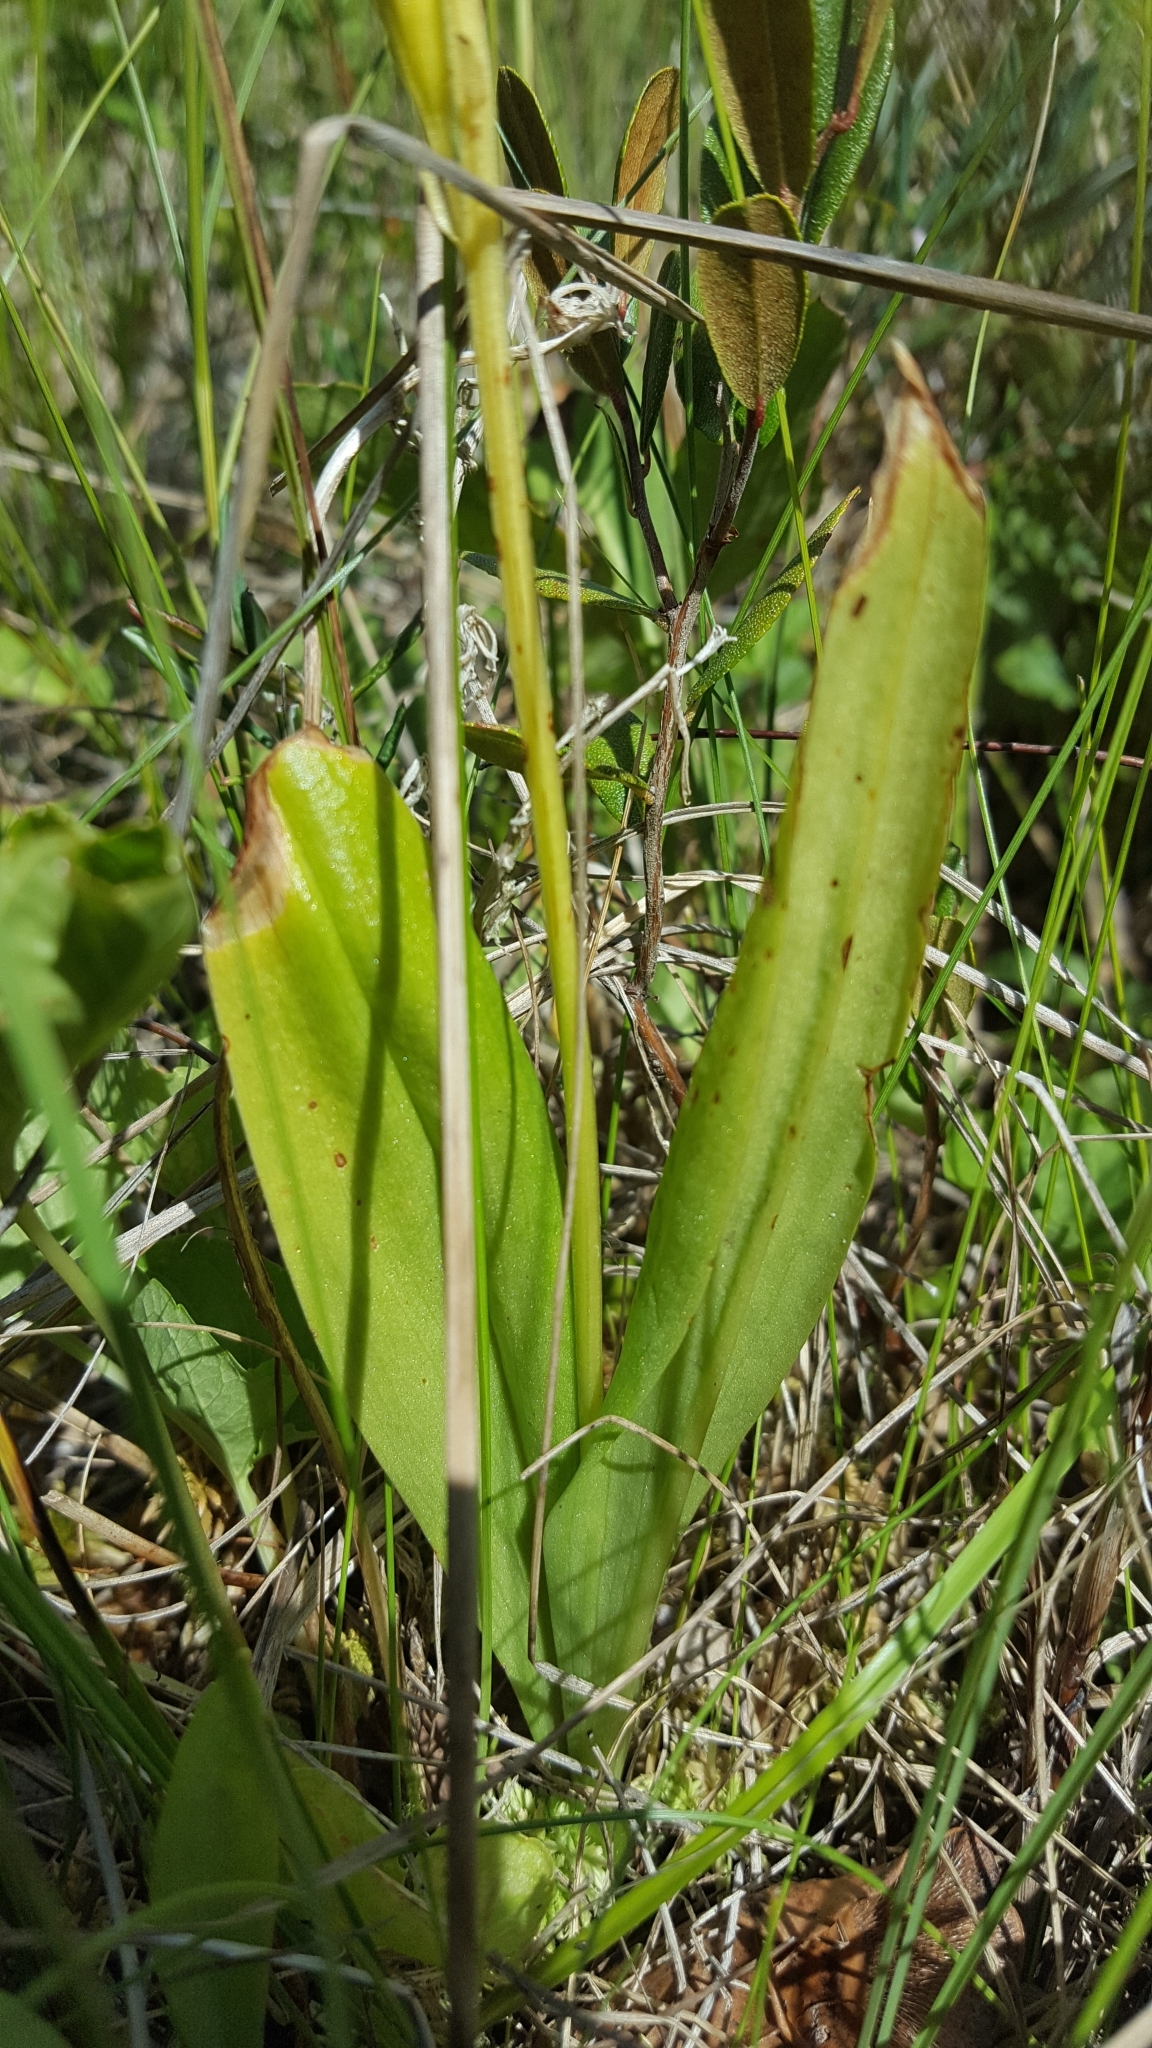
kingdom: Animalia
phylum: Arthropoda
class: Insecta
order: Coleoptera
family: Curculionidae
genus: Liparis
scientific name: Liparis loeselii
